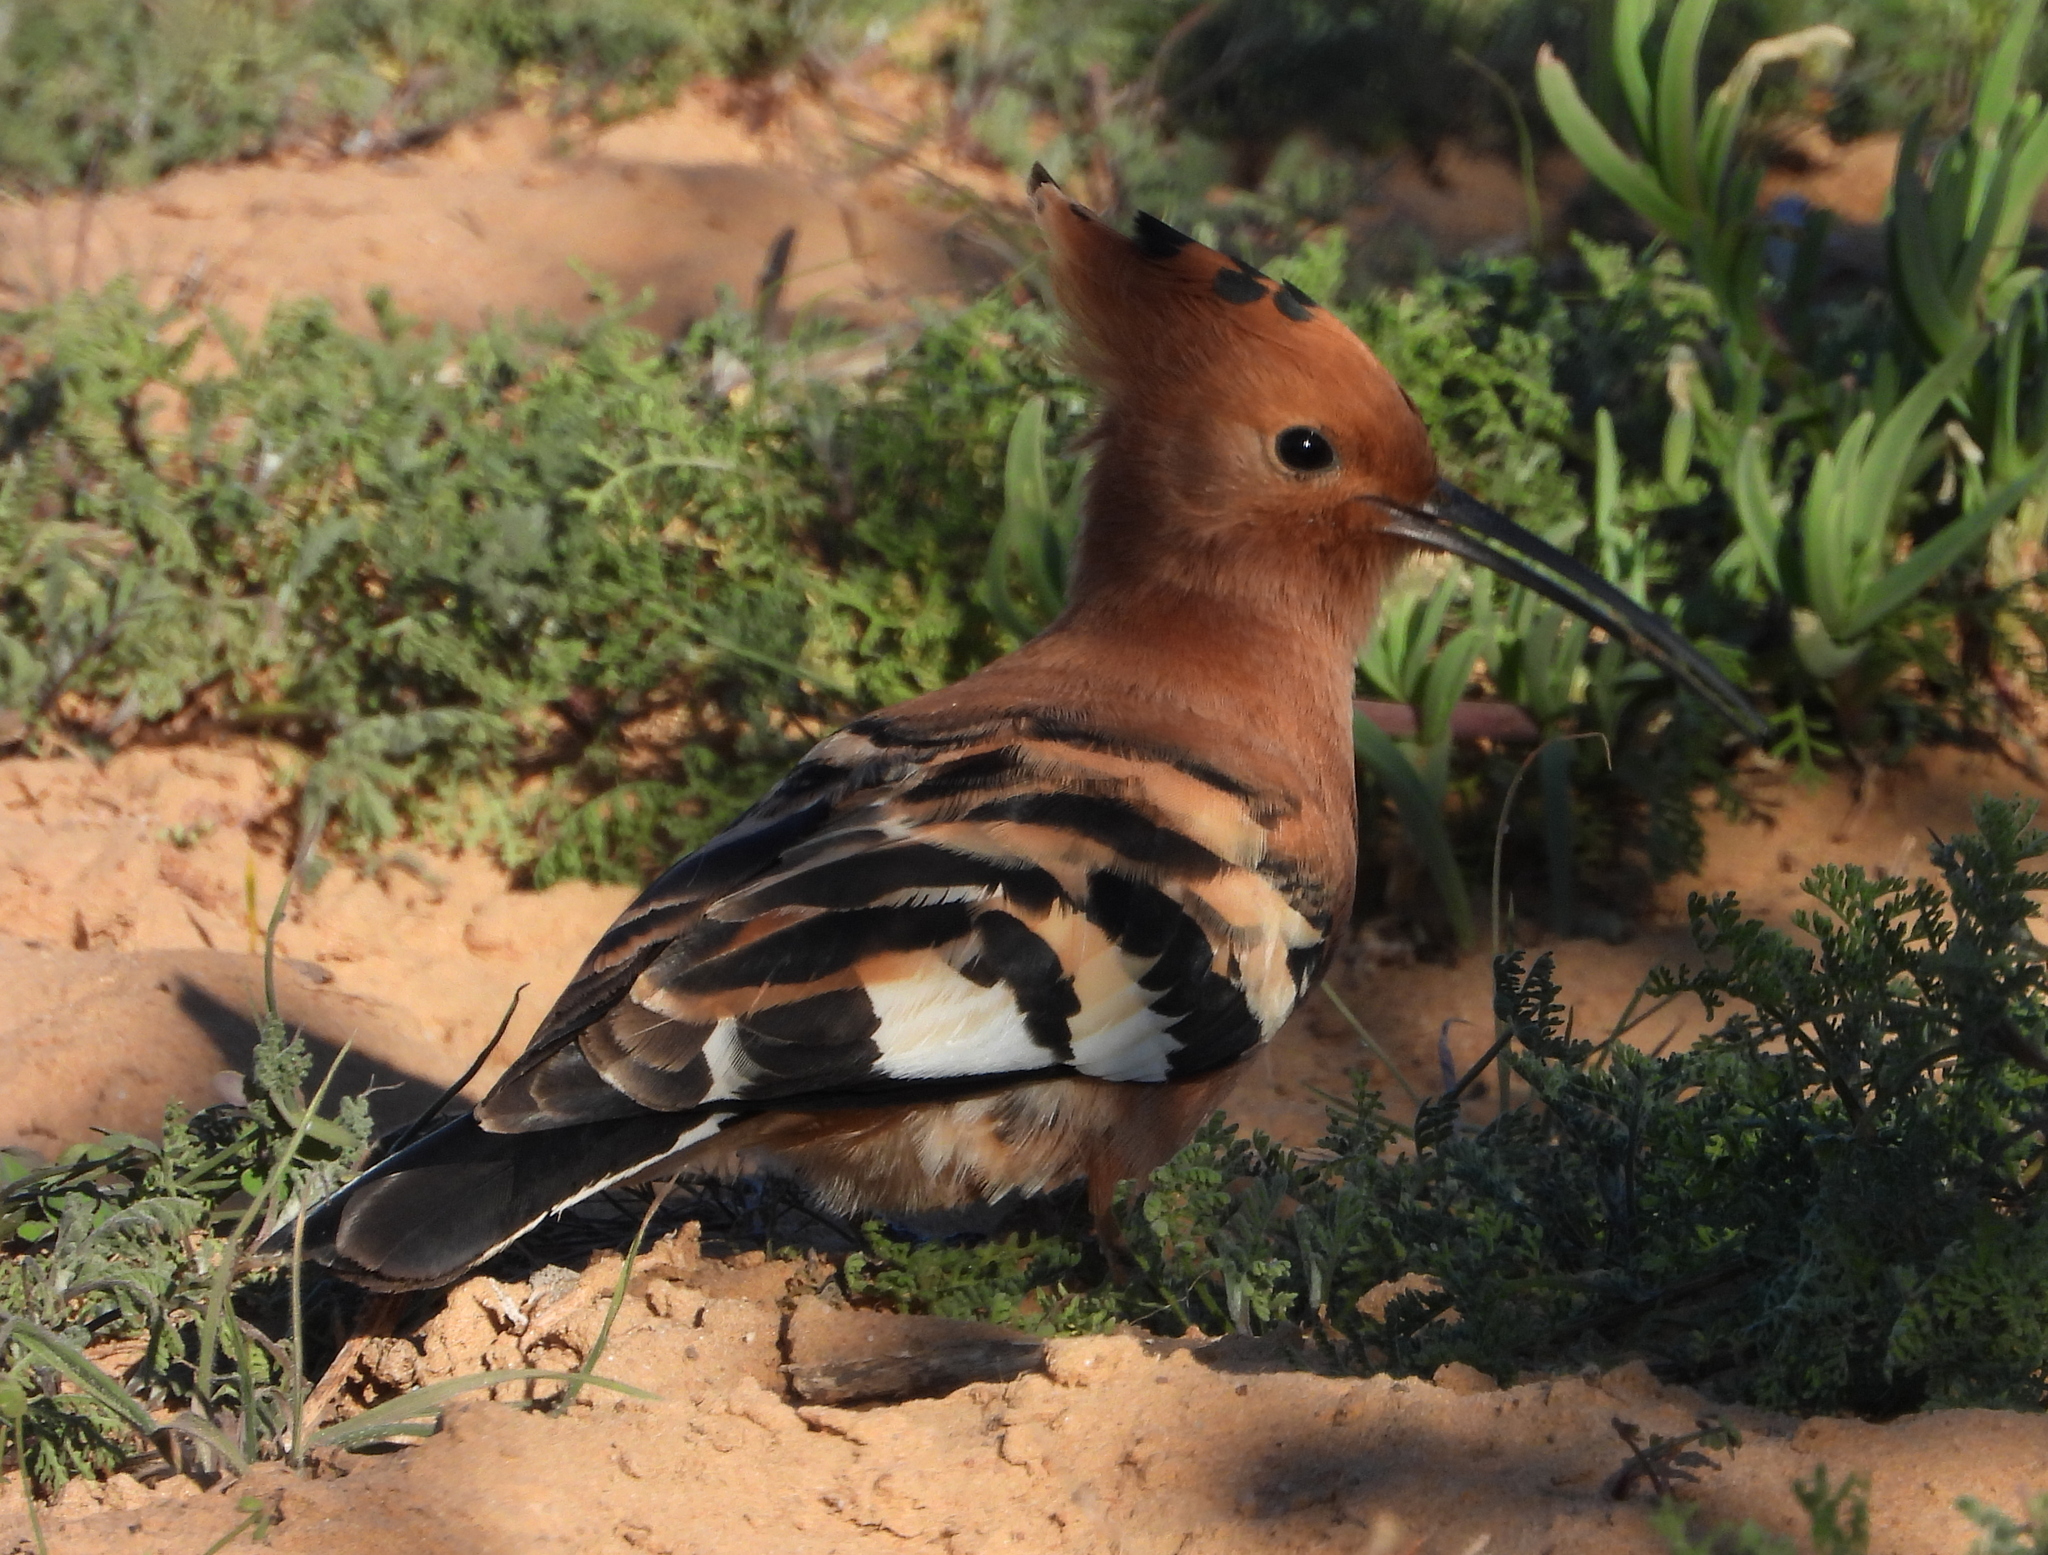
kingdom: Animalia
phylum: Chordata
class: Aves
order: Bucerotiformes
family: Upupidae
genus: Upupa
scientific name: Upupa africana
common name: African hoopoe
